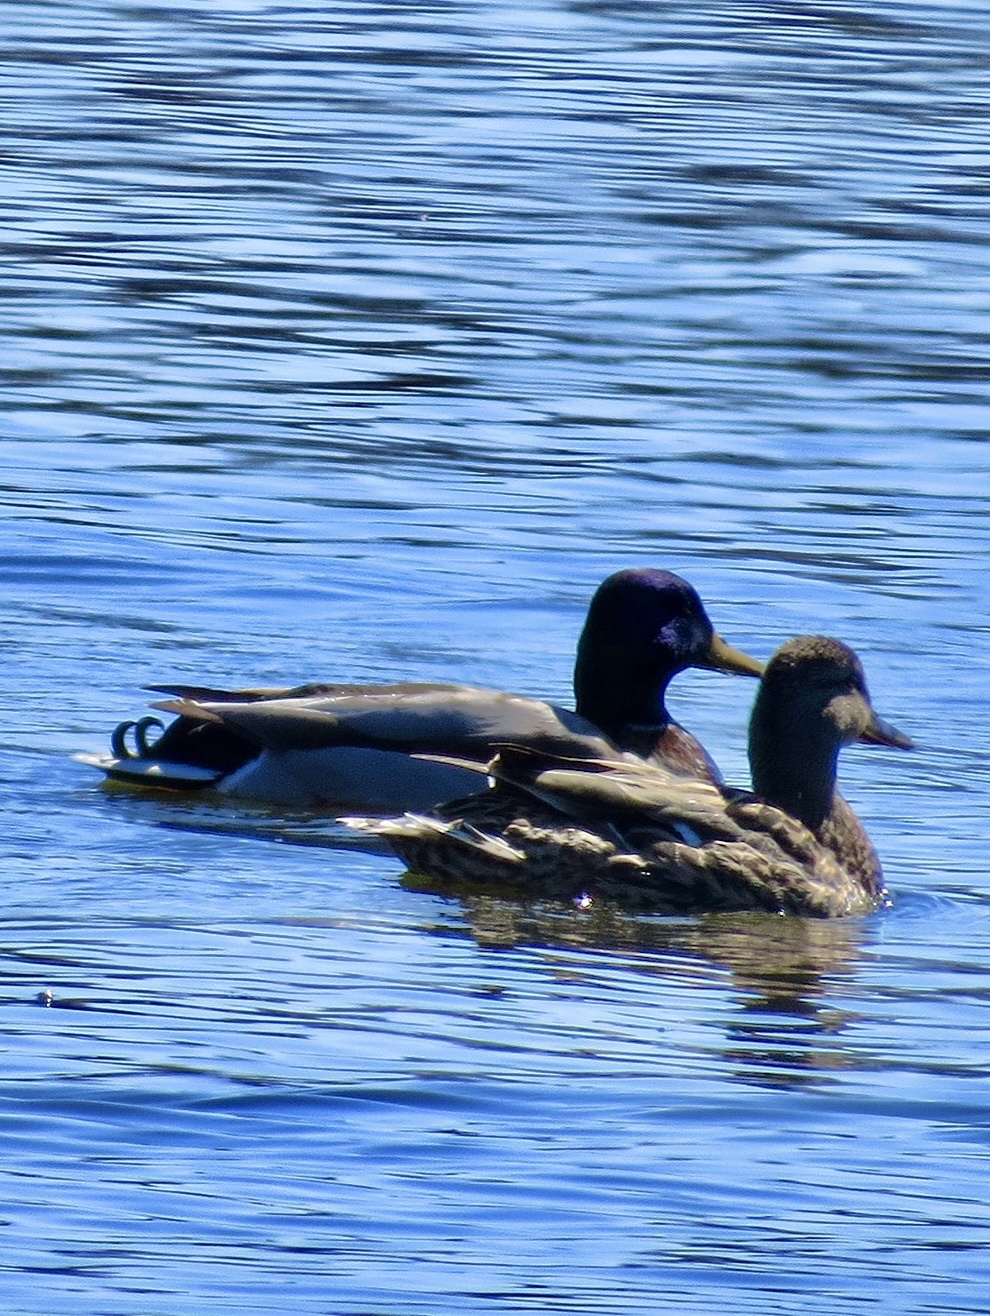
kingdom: Animalia
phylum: Chordata
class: Aves
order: Anseriformes
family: Anatidae
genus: Anas
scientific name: Anas platyrhynchos
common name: Mallard
